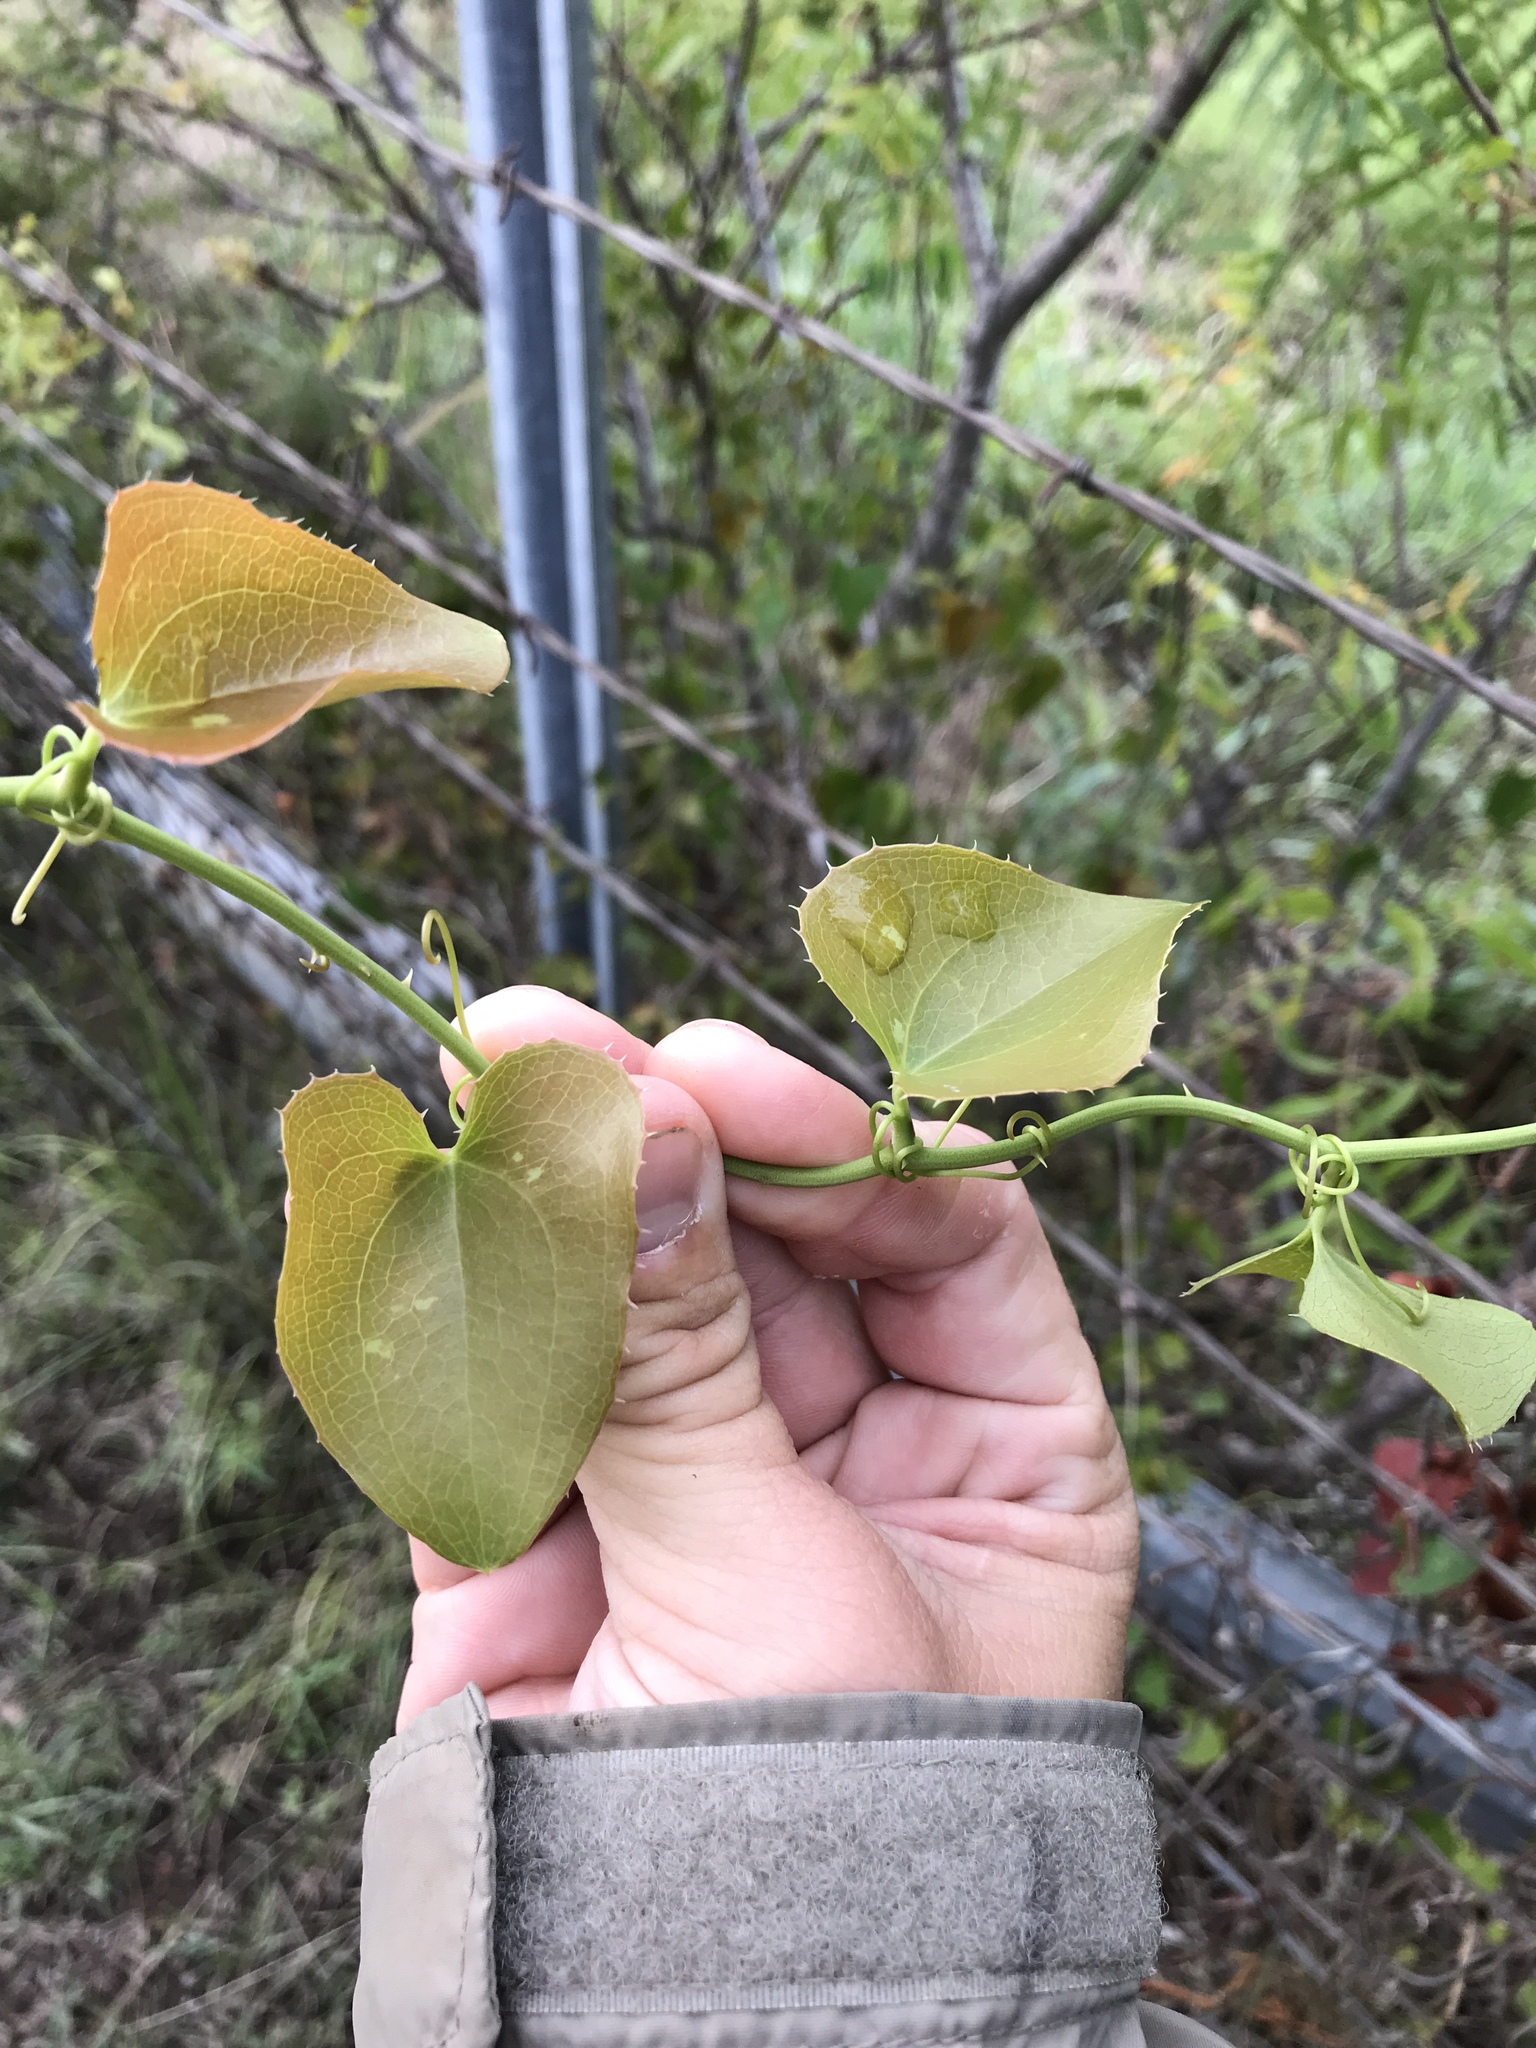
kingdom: Plantae
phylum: Tracheophyta
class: Liliopsida
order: Liliales
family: Smilacaceae
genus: Smilax
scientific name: Smilax bona-nox
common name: Catbrier
